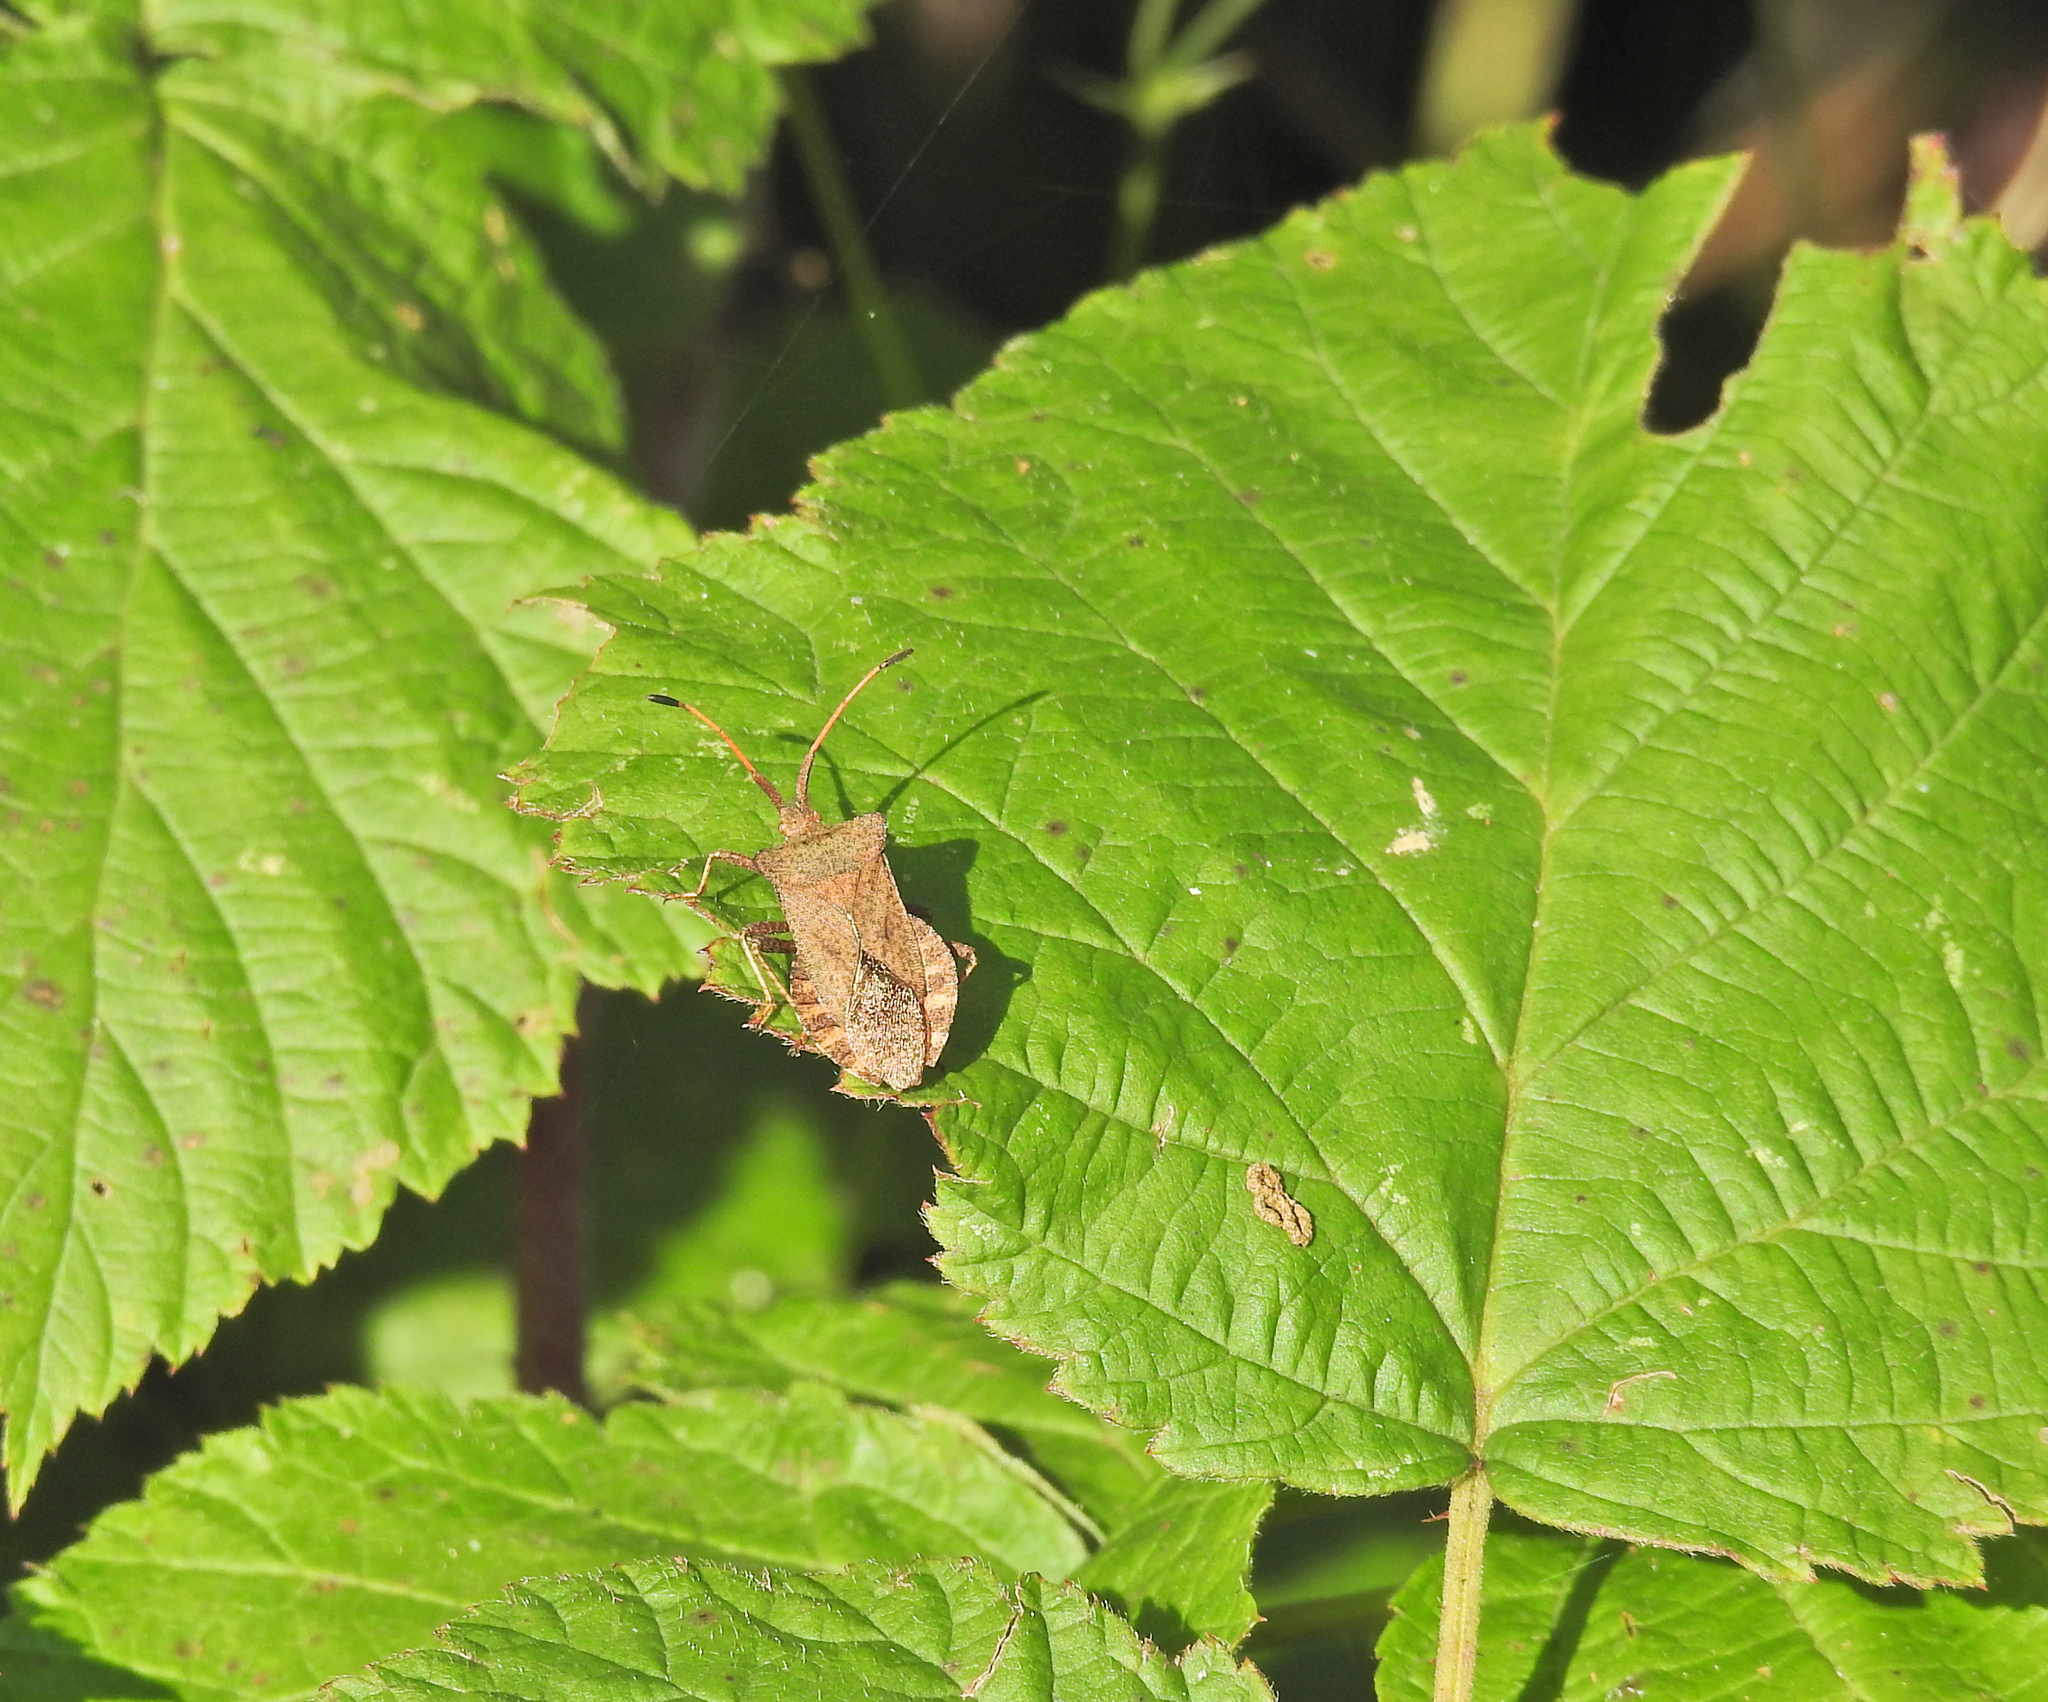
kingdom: Animalia
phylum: Arthropoda
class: Insecta
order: Hemiptera
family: Coreidae
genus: Coreus
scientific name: Coreus marginatus
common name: Dock bug
